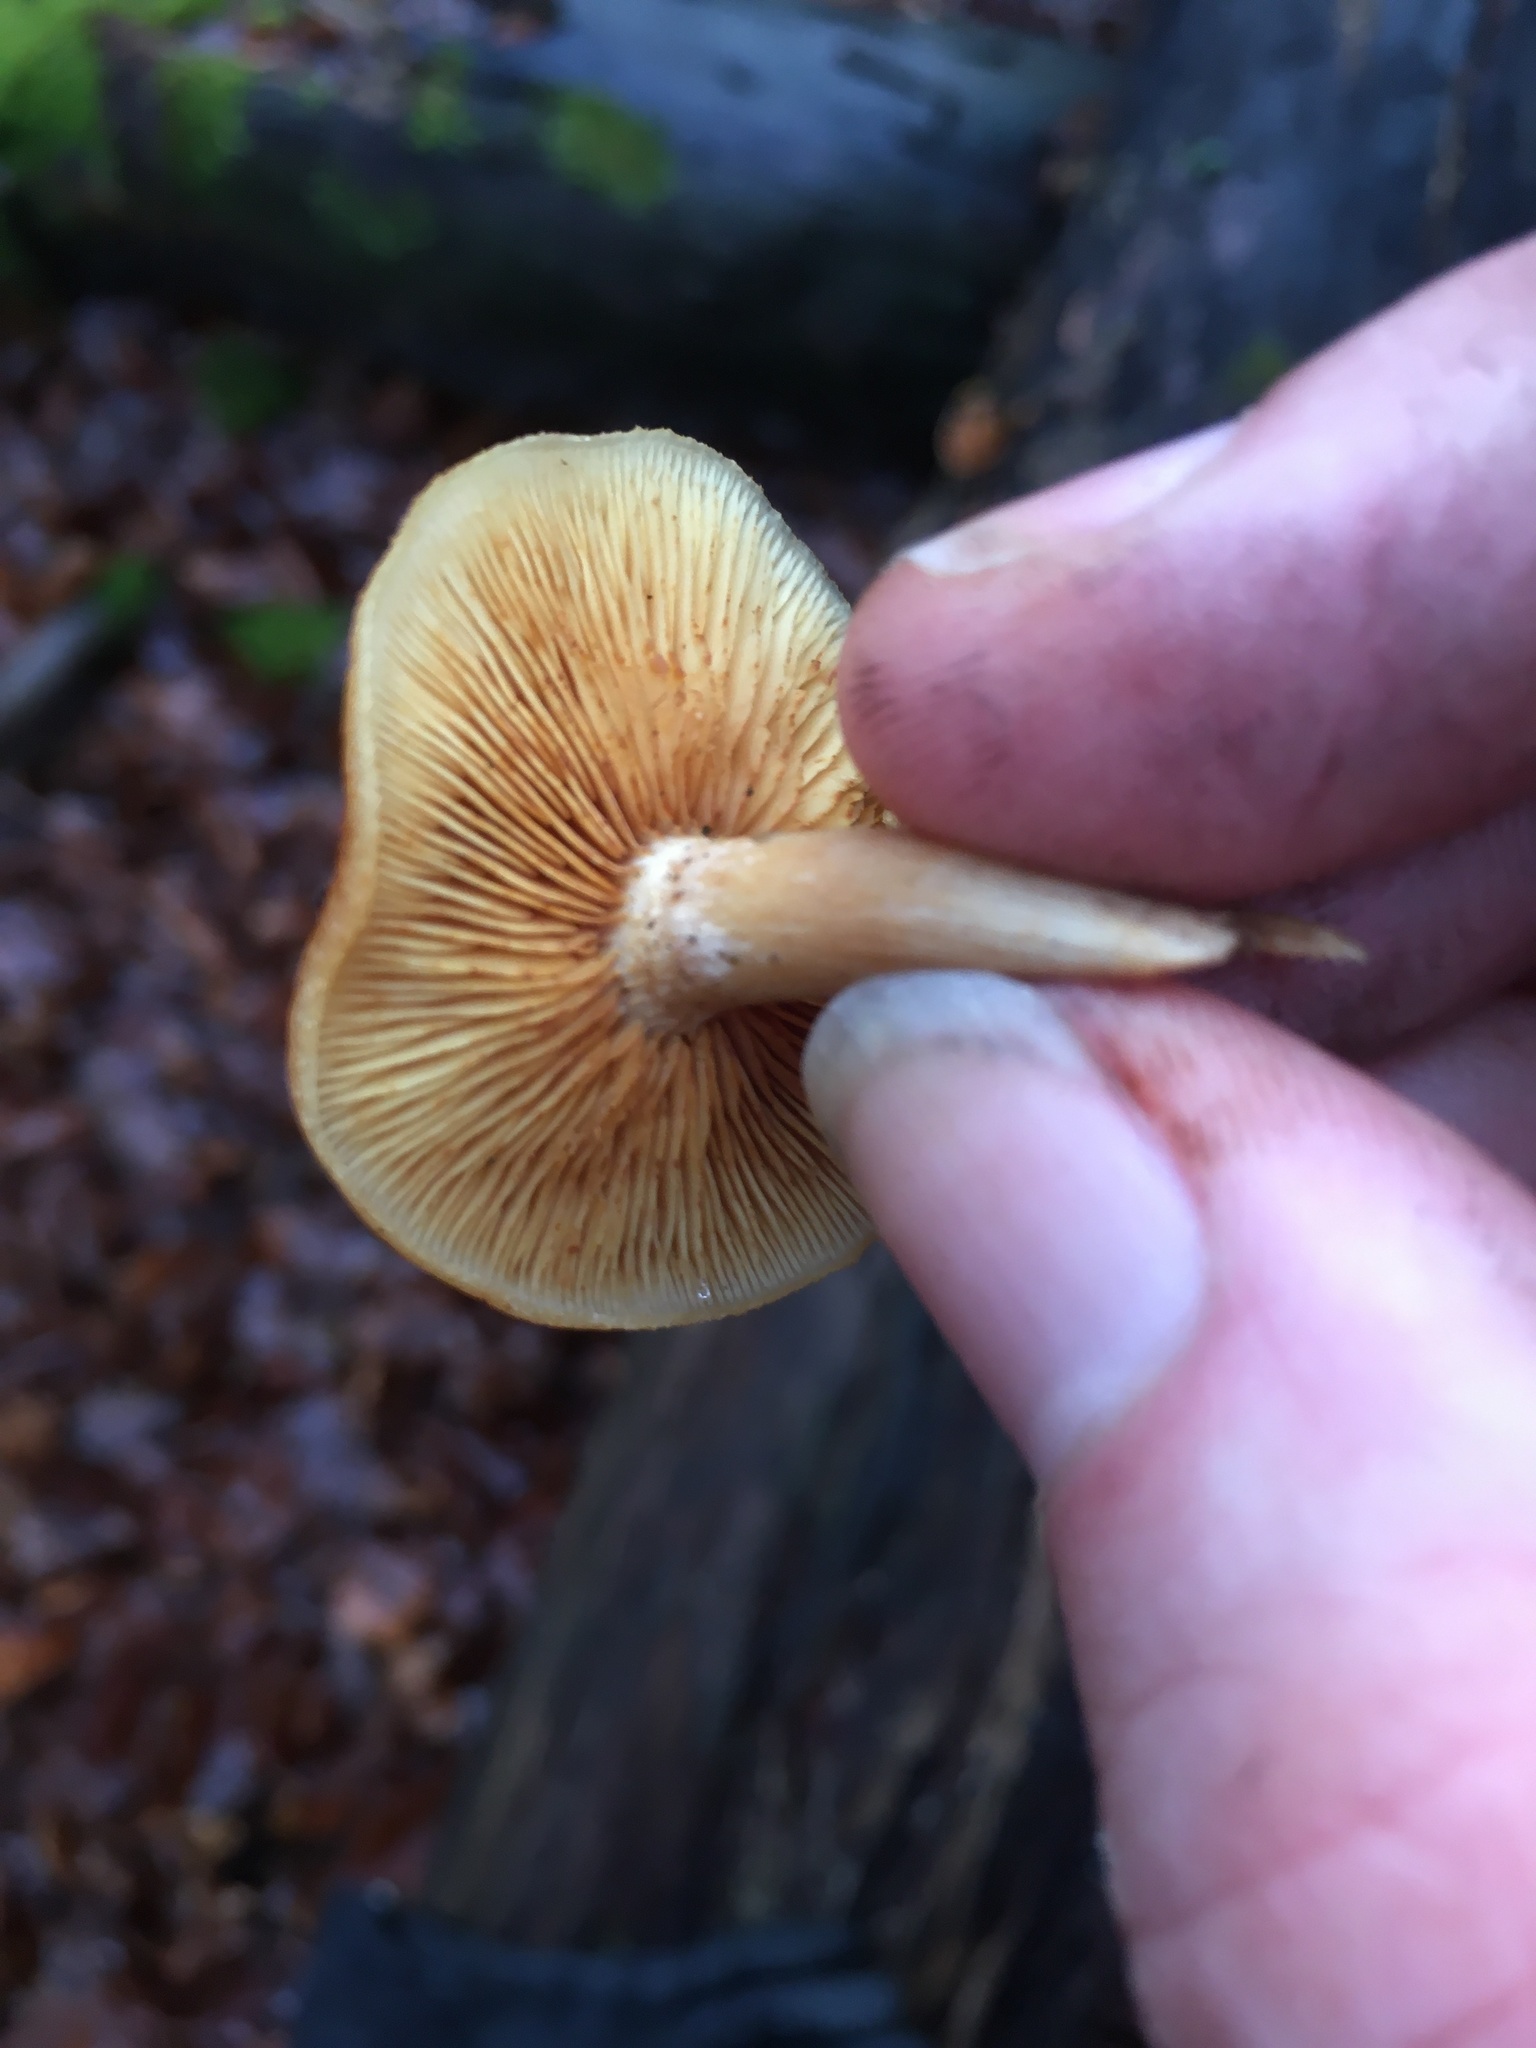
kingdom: Fungi
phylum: Basidiomycota
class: Agaricomycetes
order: Agaricales
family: Hymenogastraceae
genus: Gymnopilus
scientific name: Gymnopilus penetrans
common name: Common rustgill
